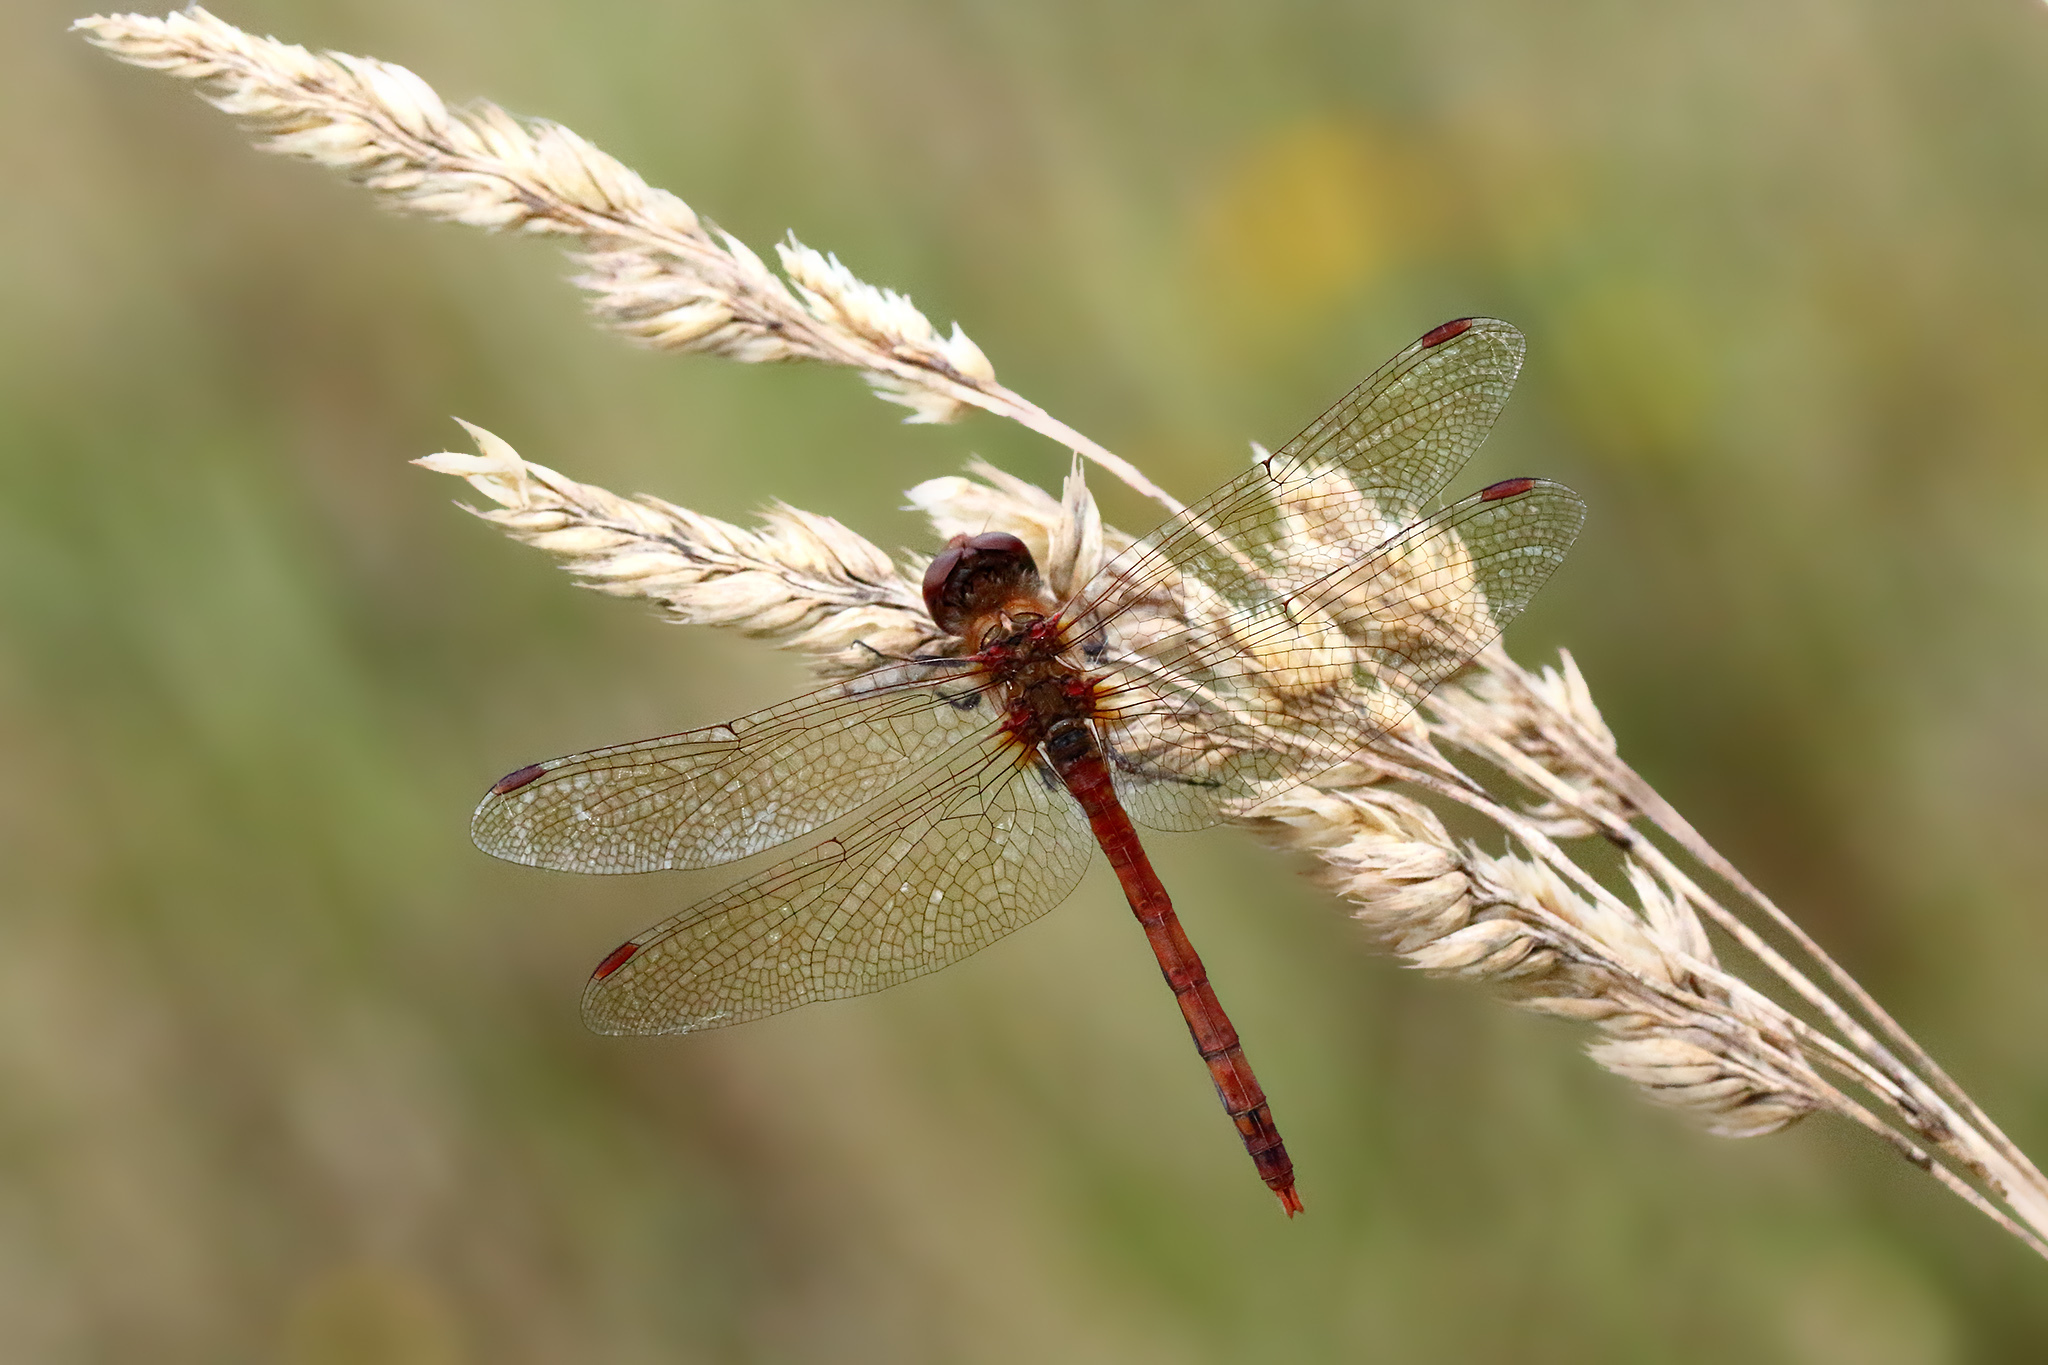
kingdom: Animalia
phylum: Arthropoda
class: Insecta
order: Odonata
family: Libellulidae
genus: Sympetrum
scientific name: Sympetrum striolatum
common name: Common darter
